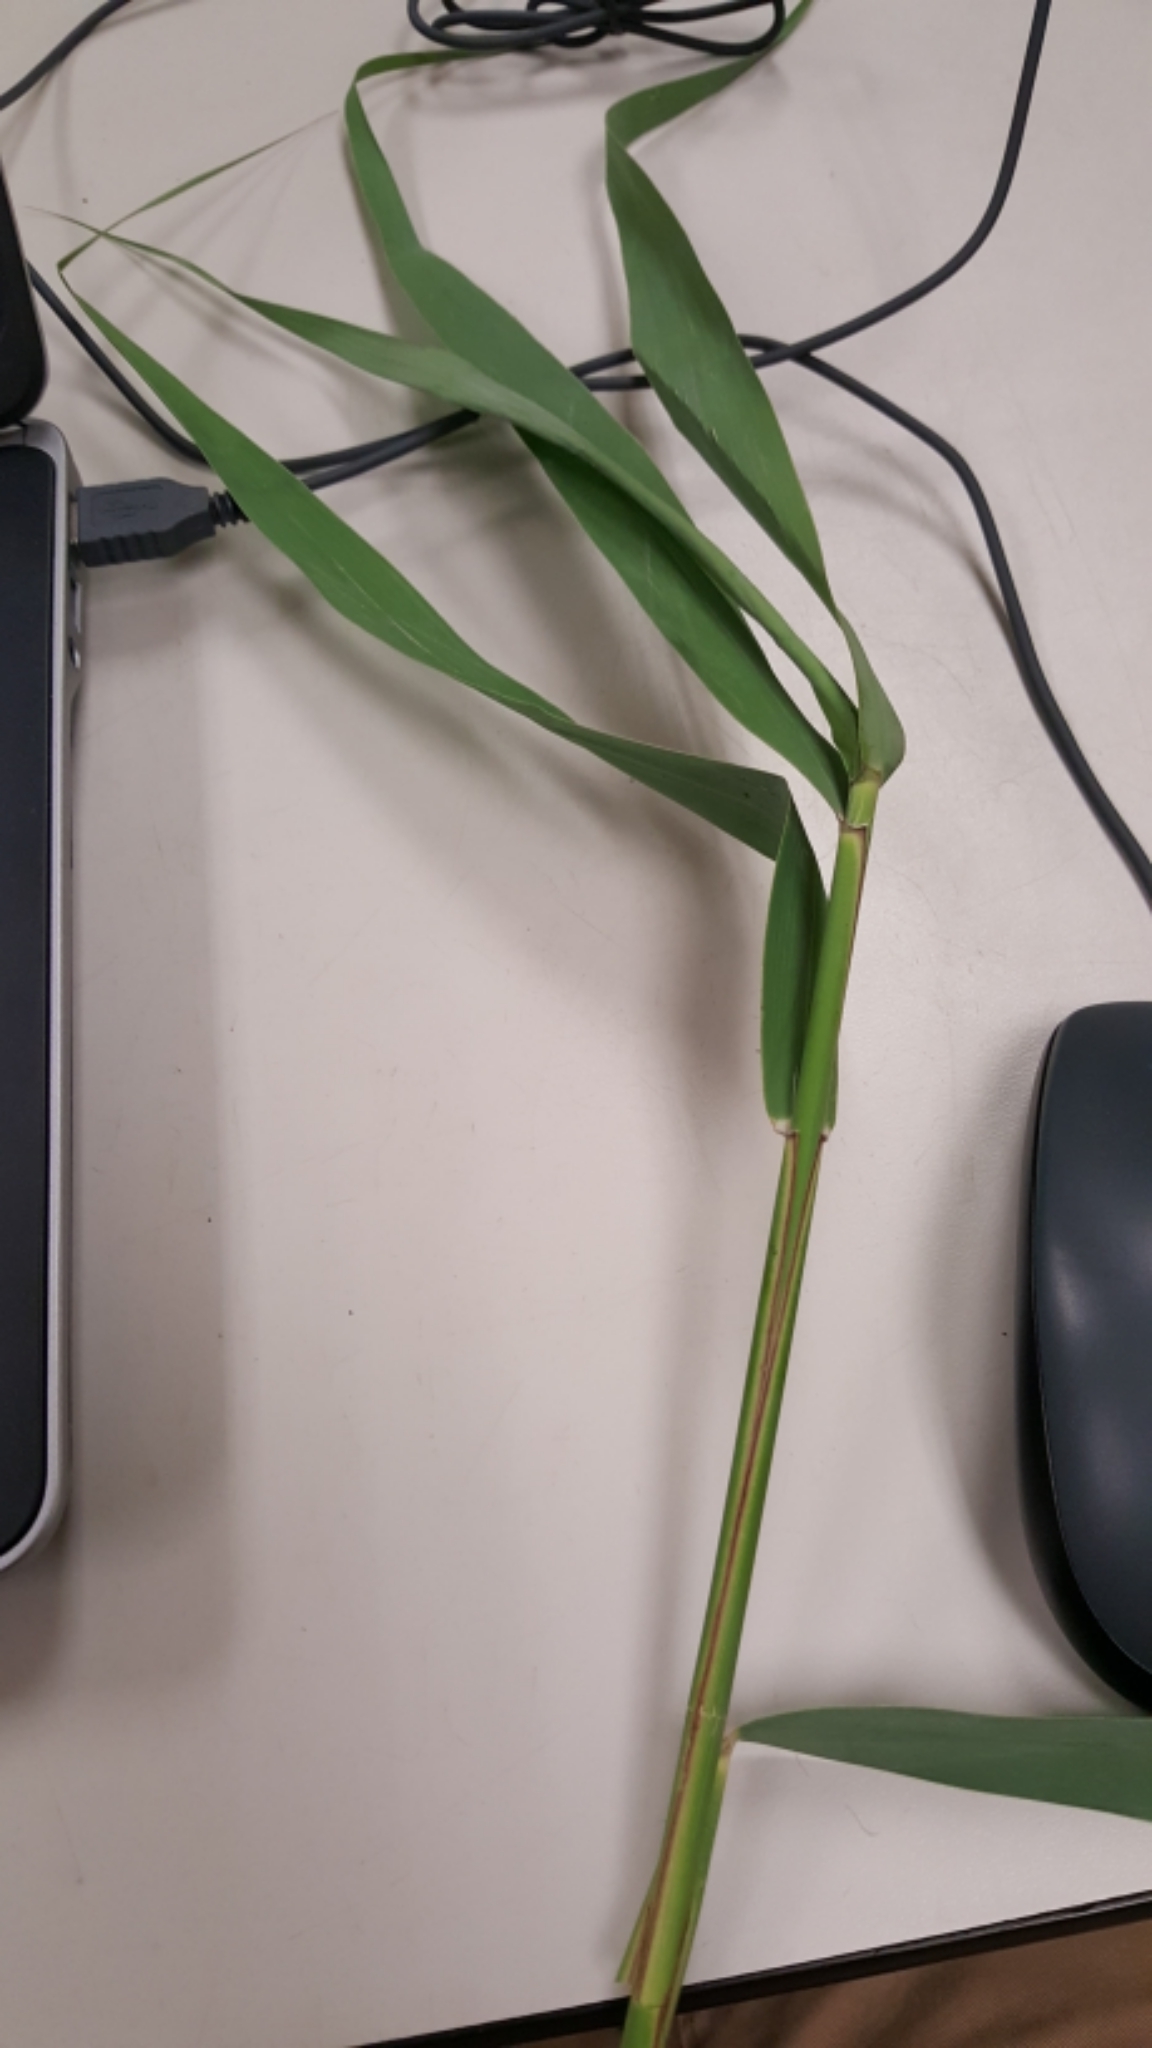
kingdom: Plantae
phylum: Tracheophyta
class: Liliopsida
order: Poales
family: Poaceae
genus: Phragmites
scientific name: Phragmites australis
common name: Common reed
